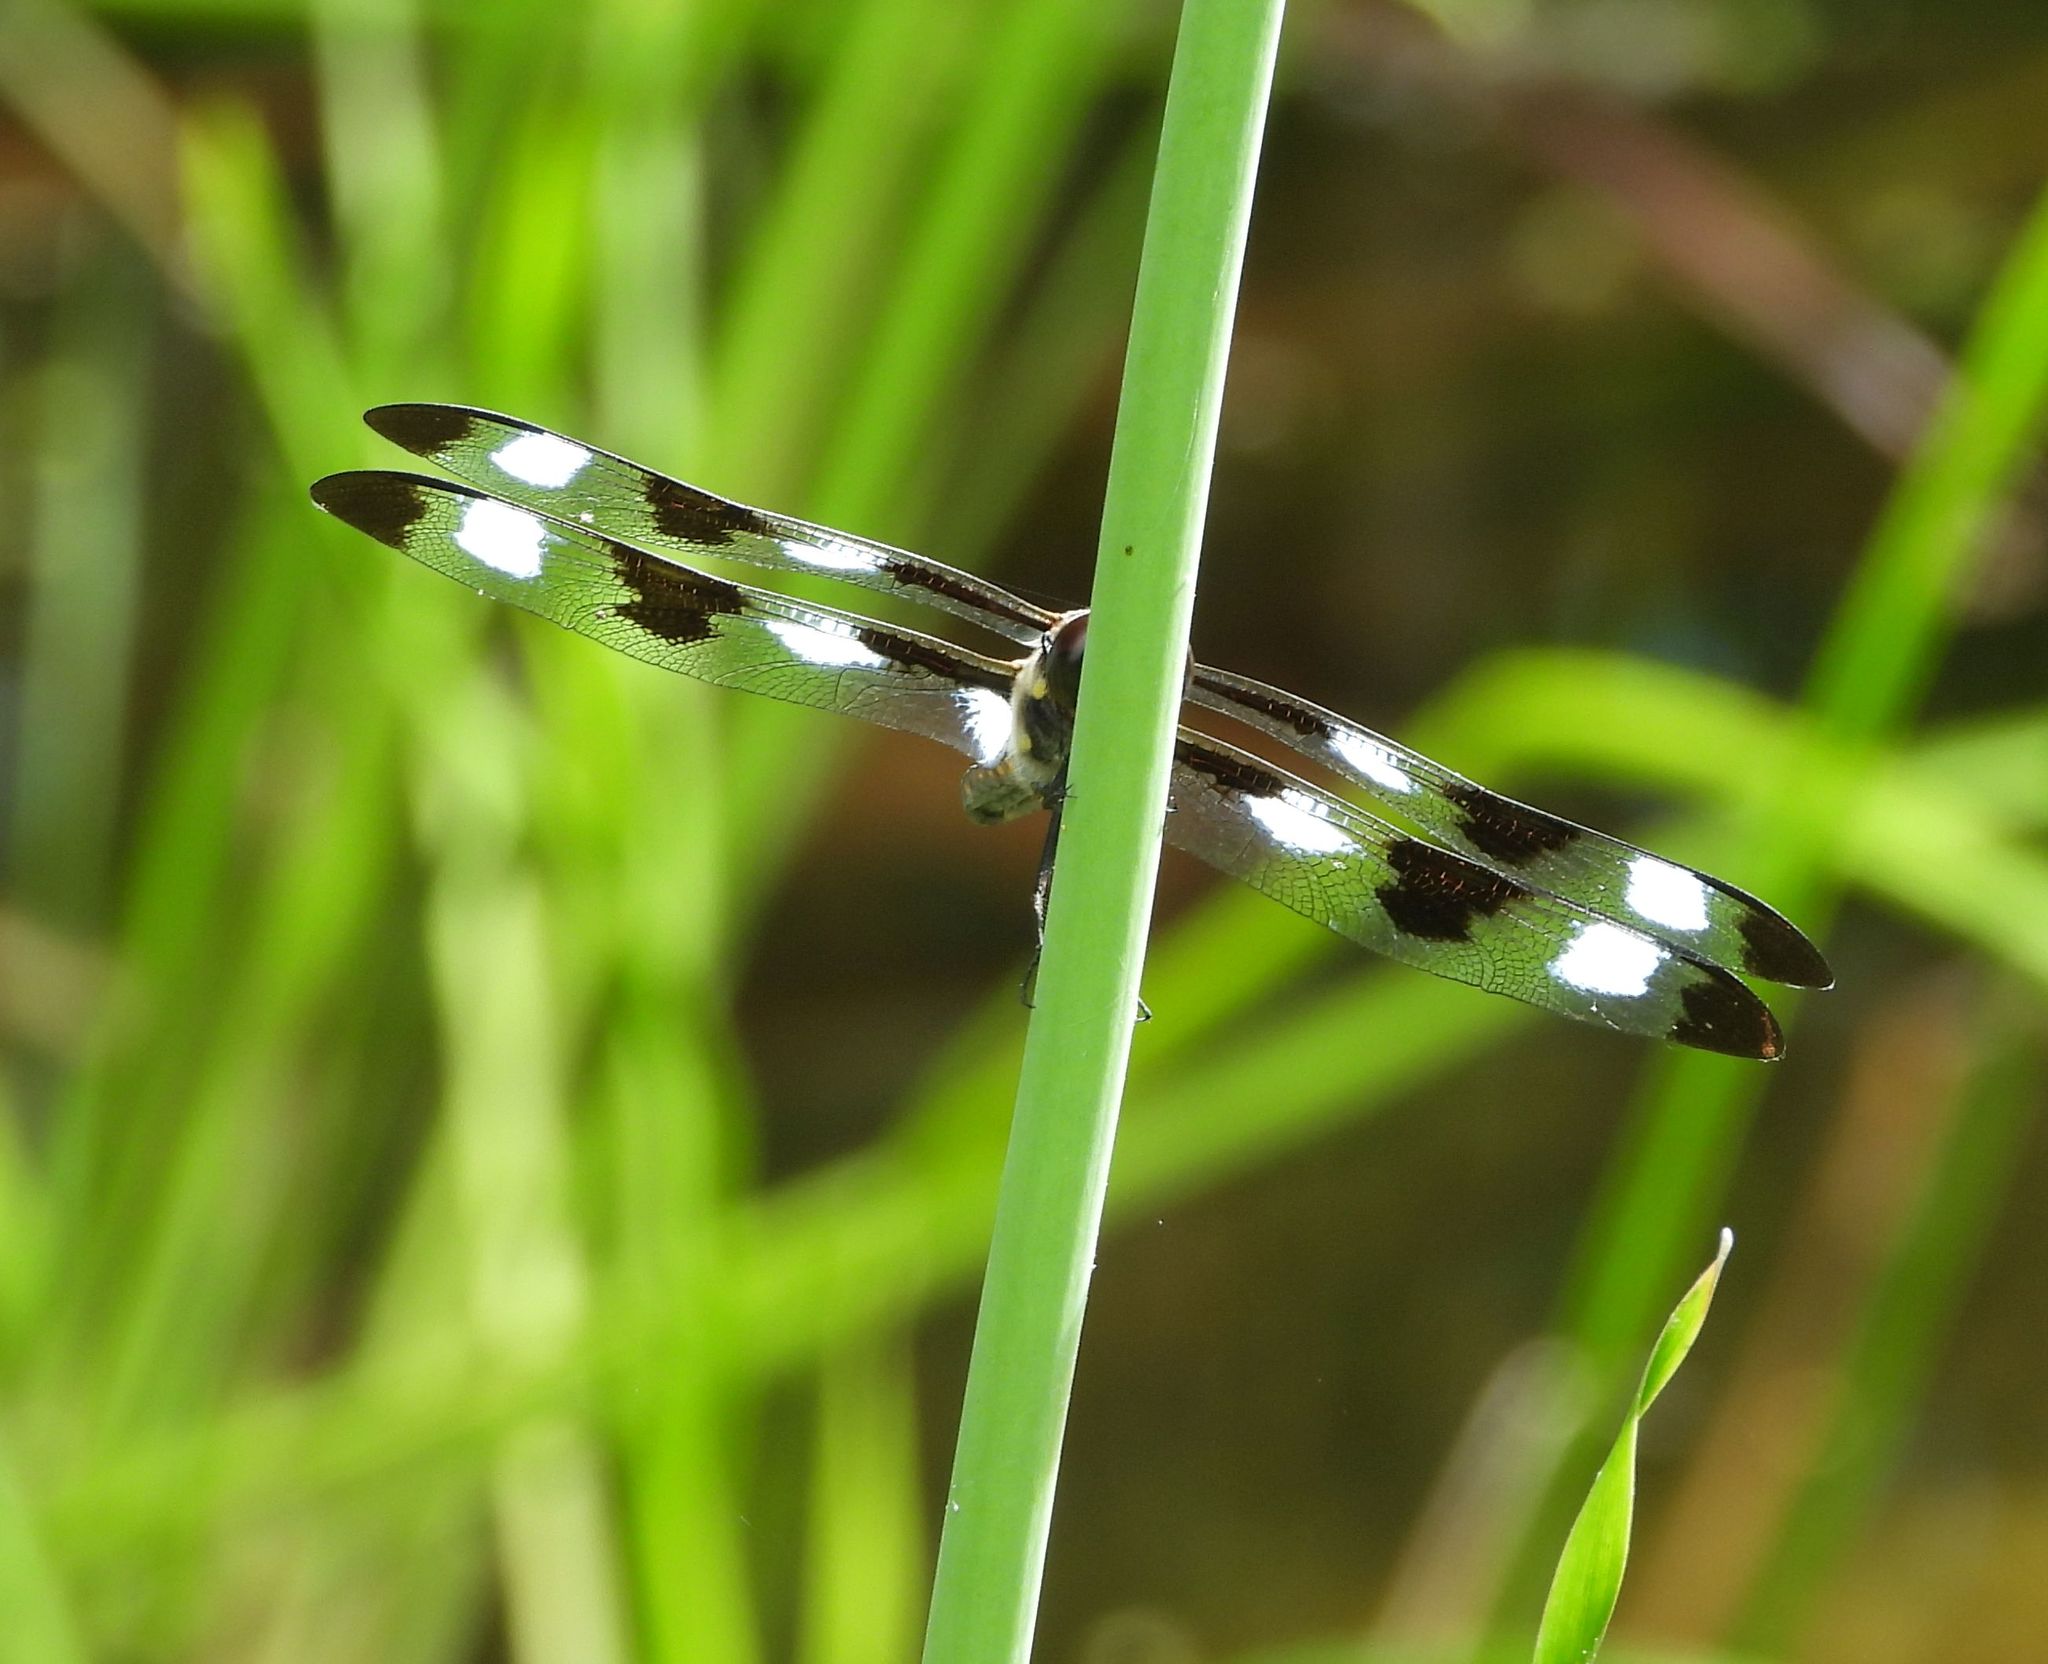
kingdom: Animalia
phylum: Arthropoda
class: Insecta
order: Odonata
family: Libellulidae
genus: Libellula
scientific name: Libellula pulchella
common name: Twelve-spotted skimmer
